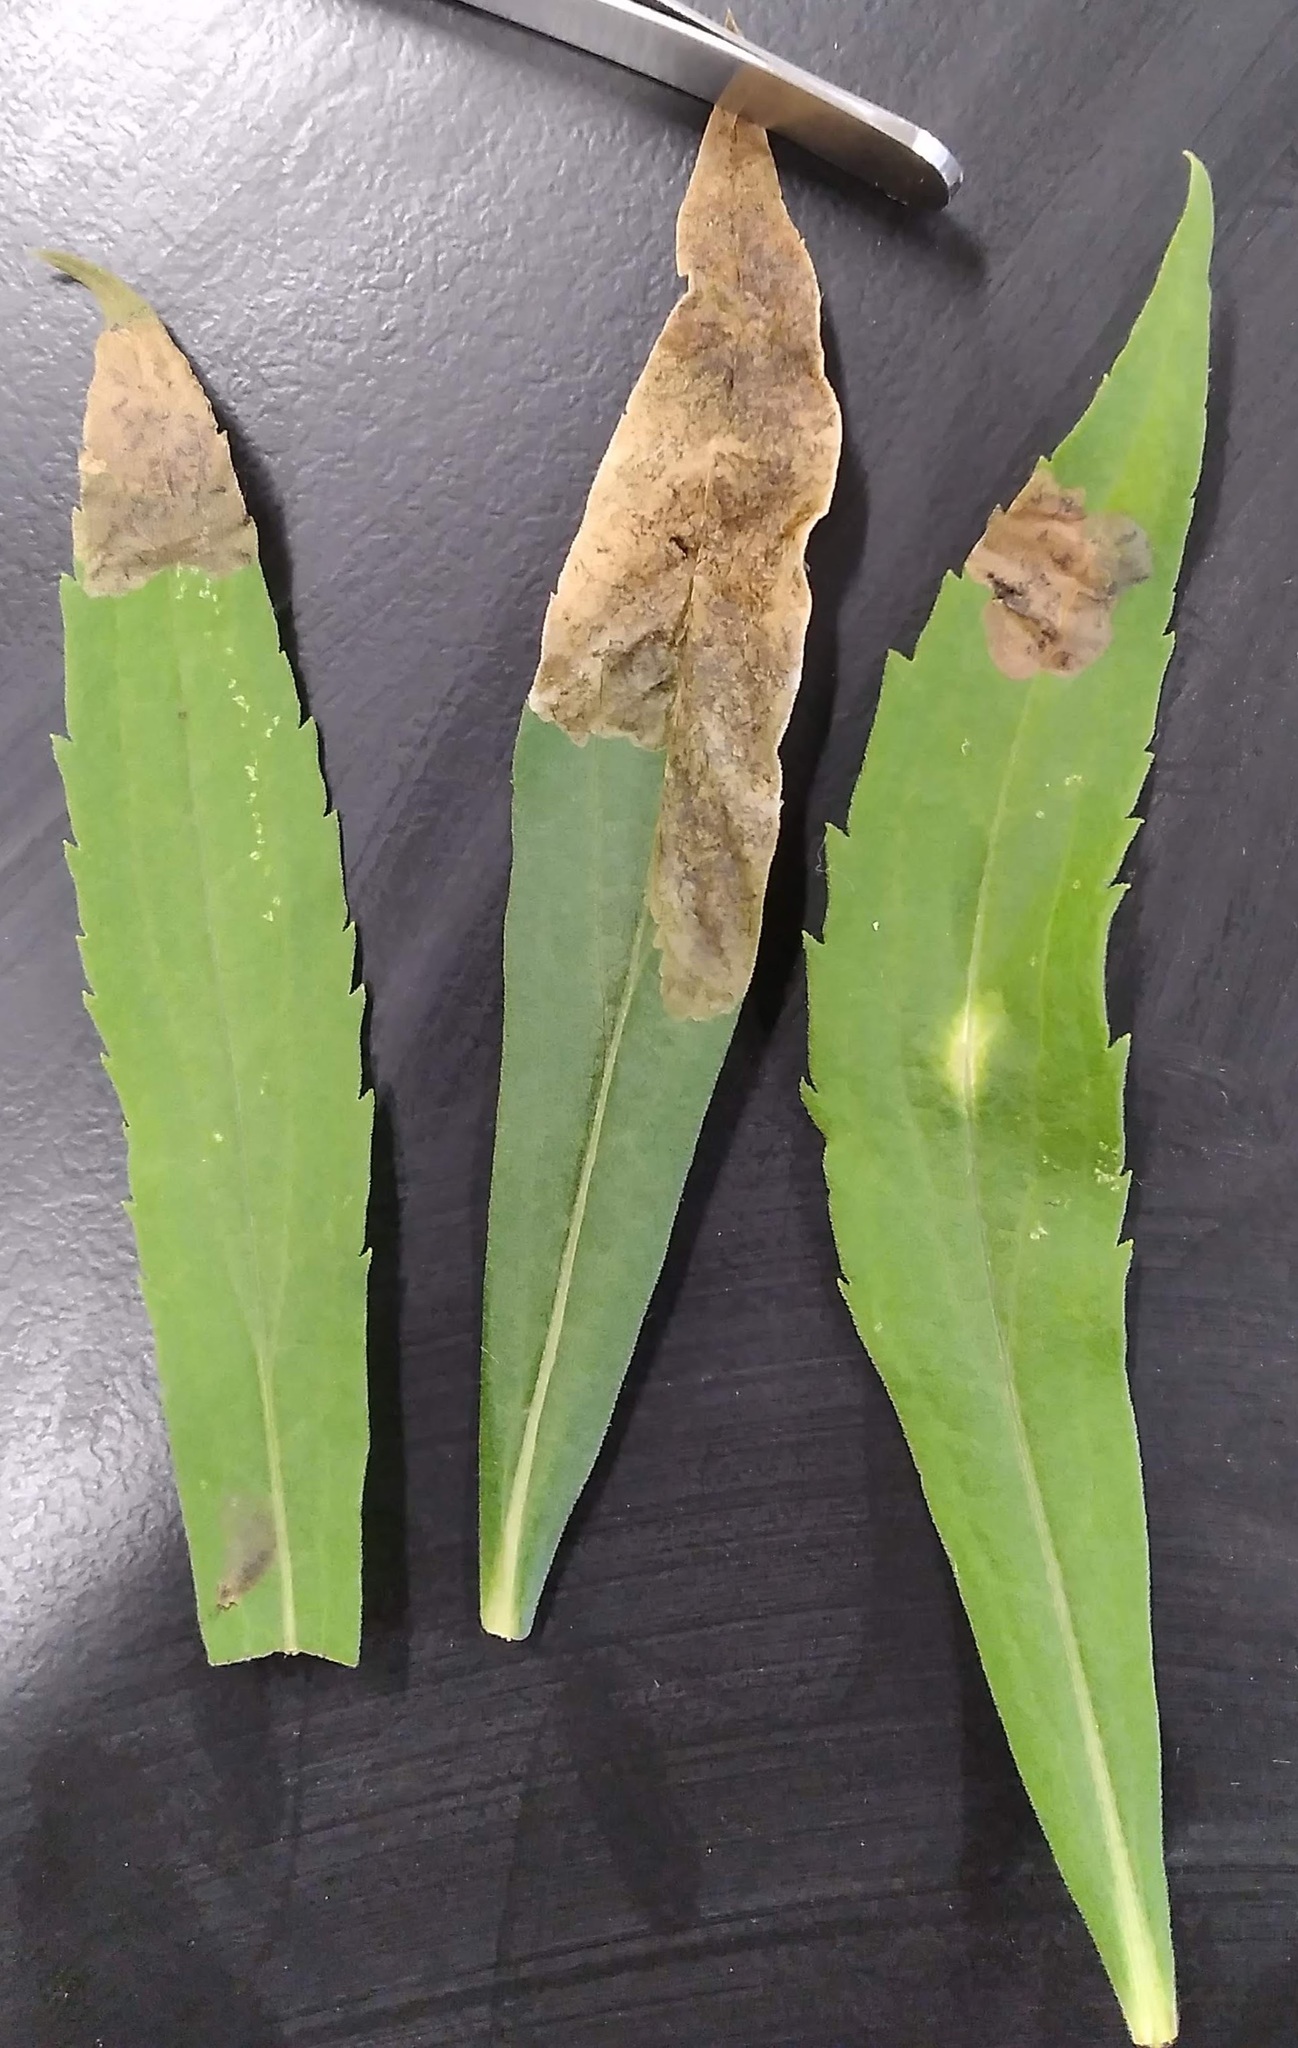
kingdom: Animalia
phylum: Arthropoda
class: Insecta
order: Coleoptera
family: Chrysomelidae
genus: Microrhopala
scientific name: Microrhopala vittata
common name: Goldenrod leaf miner beetle
